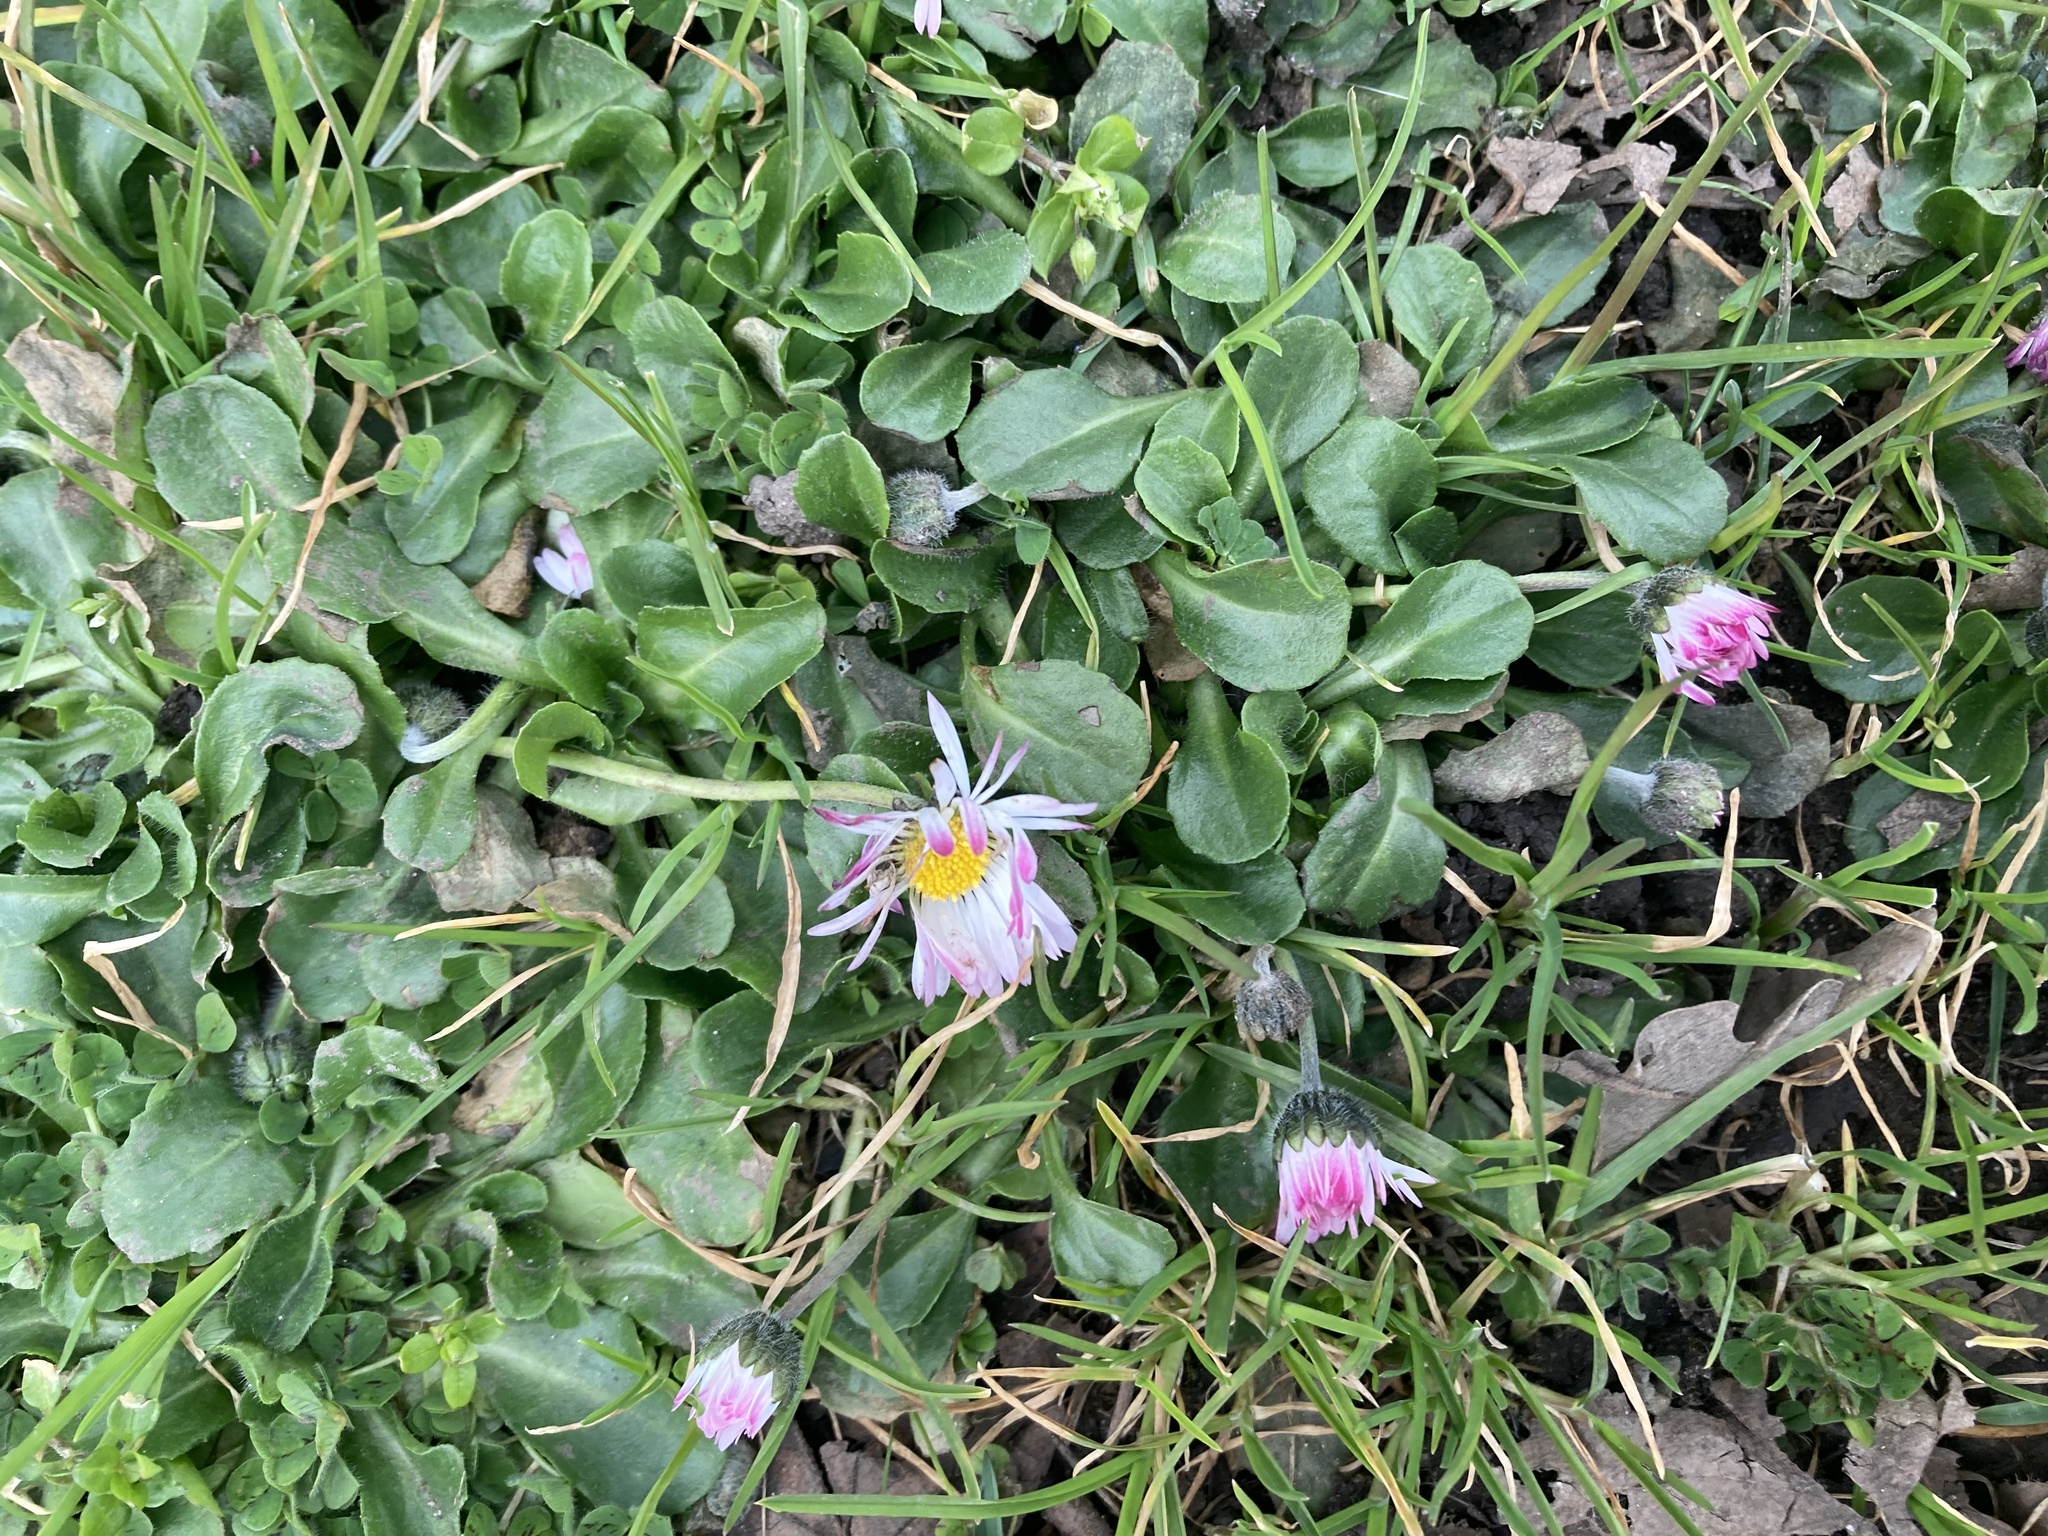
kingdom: Plantae
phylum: Tracheophyta
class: Magnoliopsida
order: Asterales
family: Asteraceae
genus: Bellis
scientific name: Bellis perennis
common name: Lawndaisy
